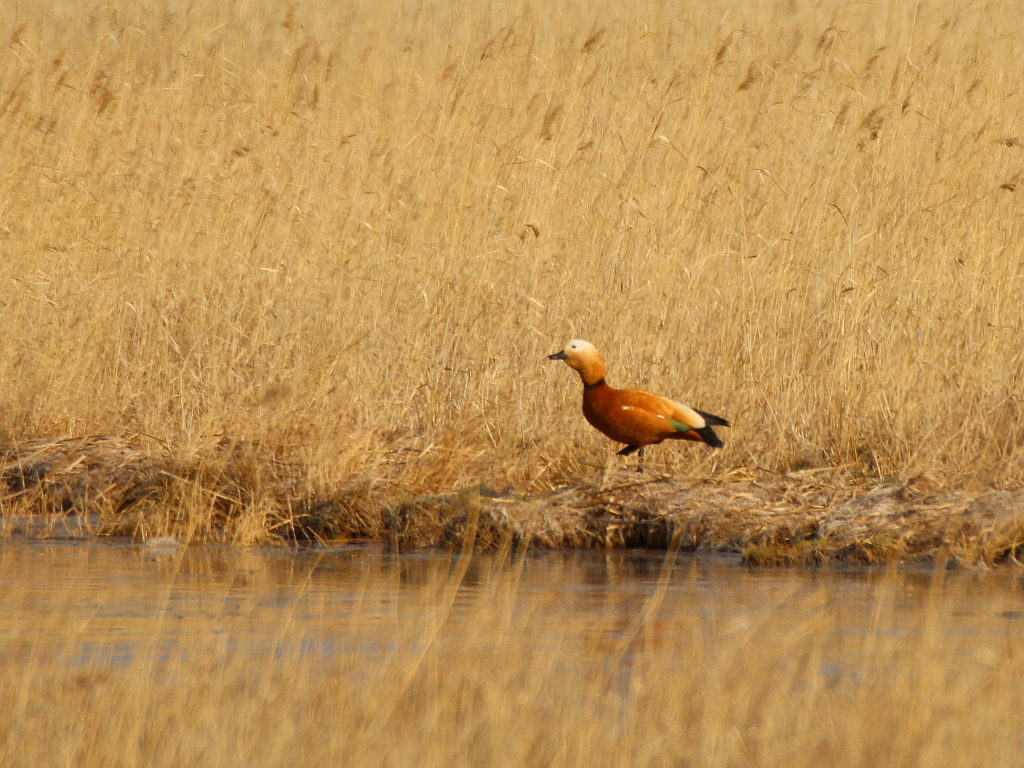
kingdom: Animalia
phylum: Chordata
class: Aves
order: Anseriformes
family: Anatidae
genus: Tadorna
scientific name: Tadorna ferruginea
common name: Ruddy shelduck
